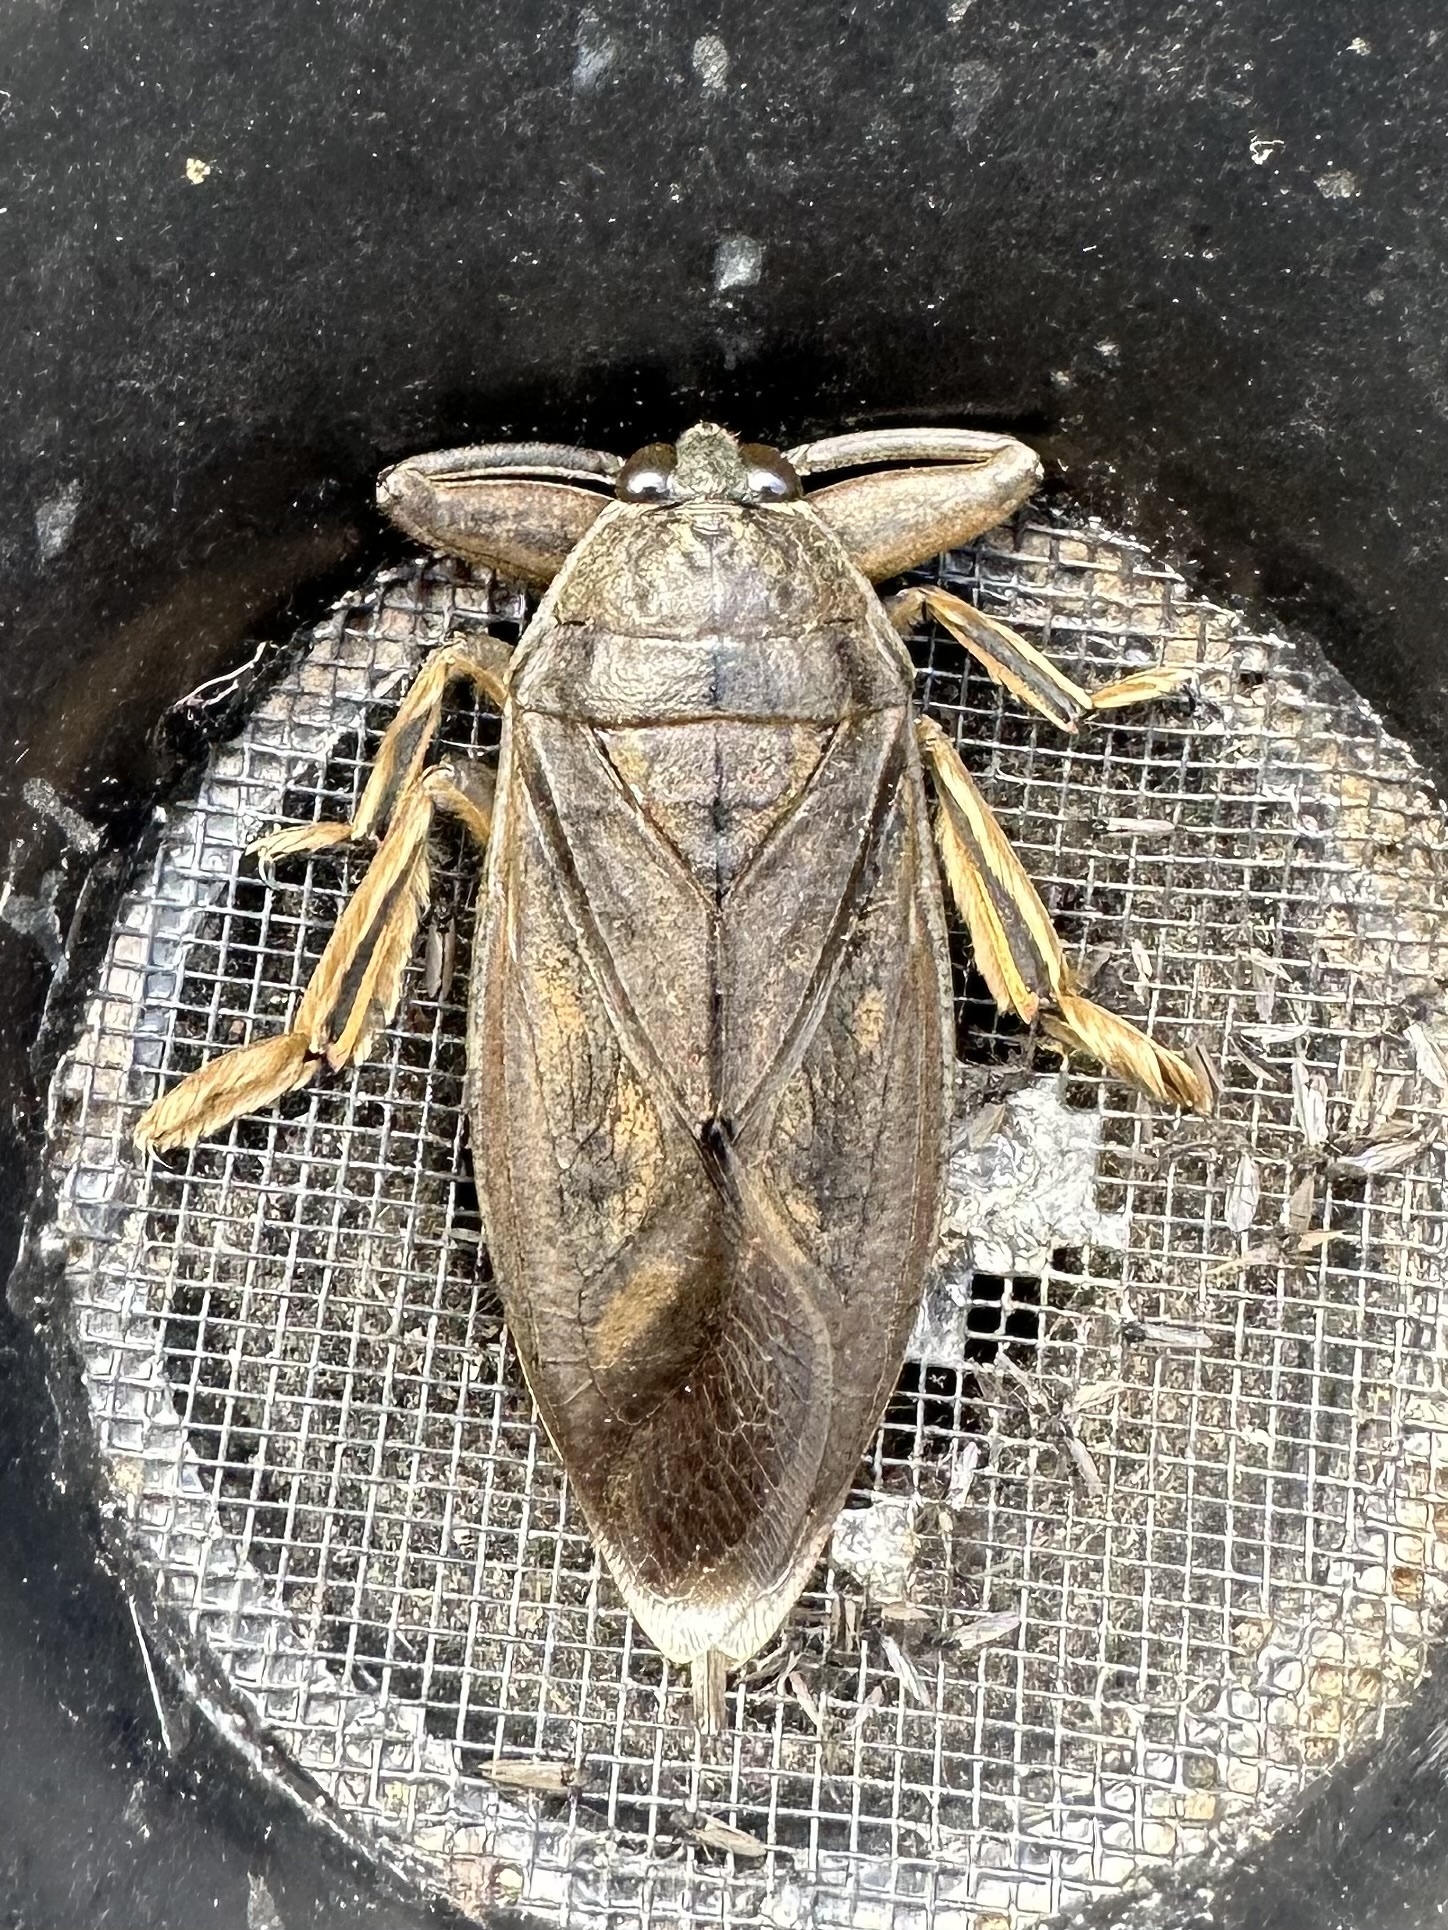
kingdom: Animalia
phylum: Arthropoda
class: Insecta
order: Hemiptera
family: Belostomatidae
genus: Lethocerus
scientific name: Lethocerus americanus
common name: Giant water bug
